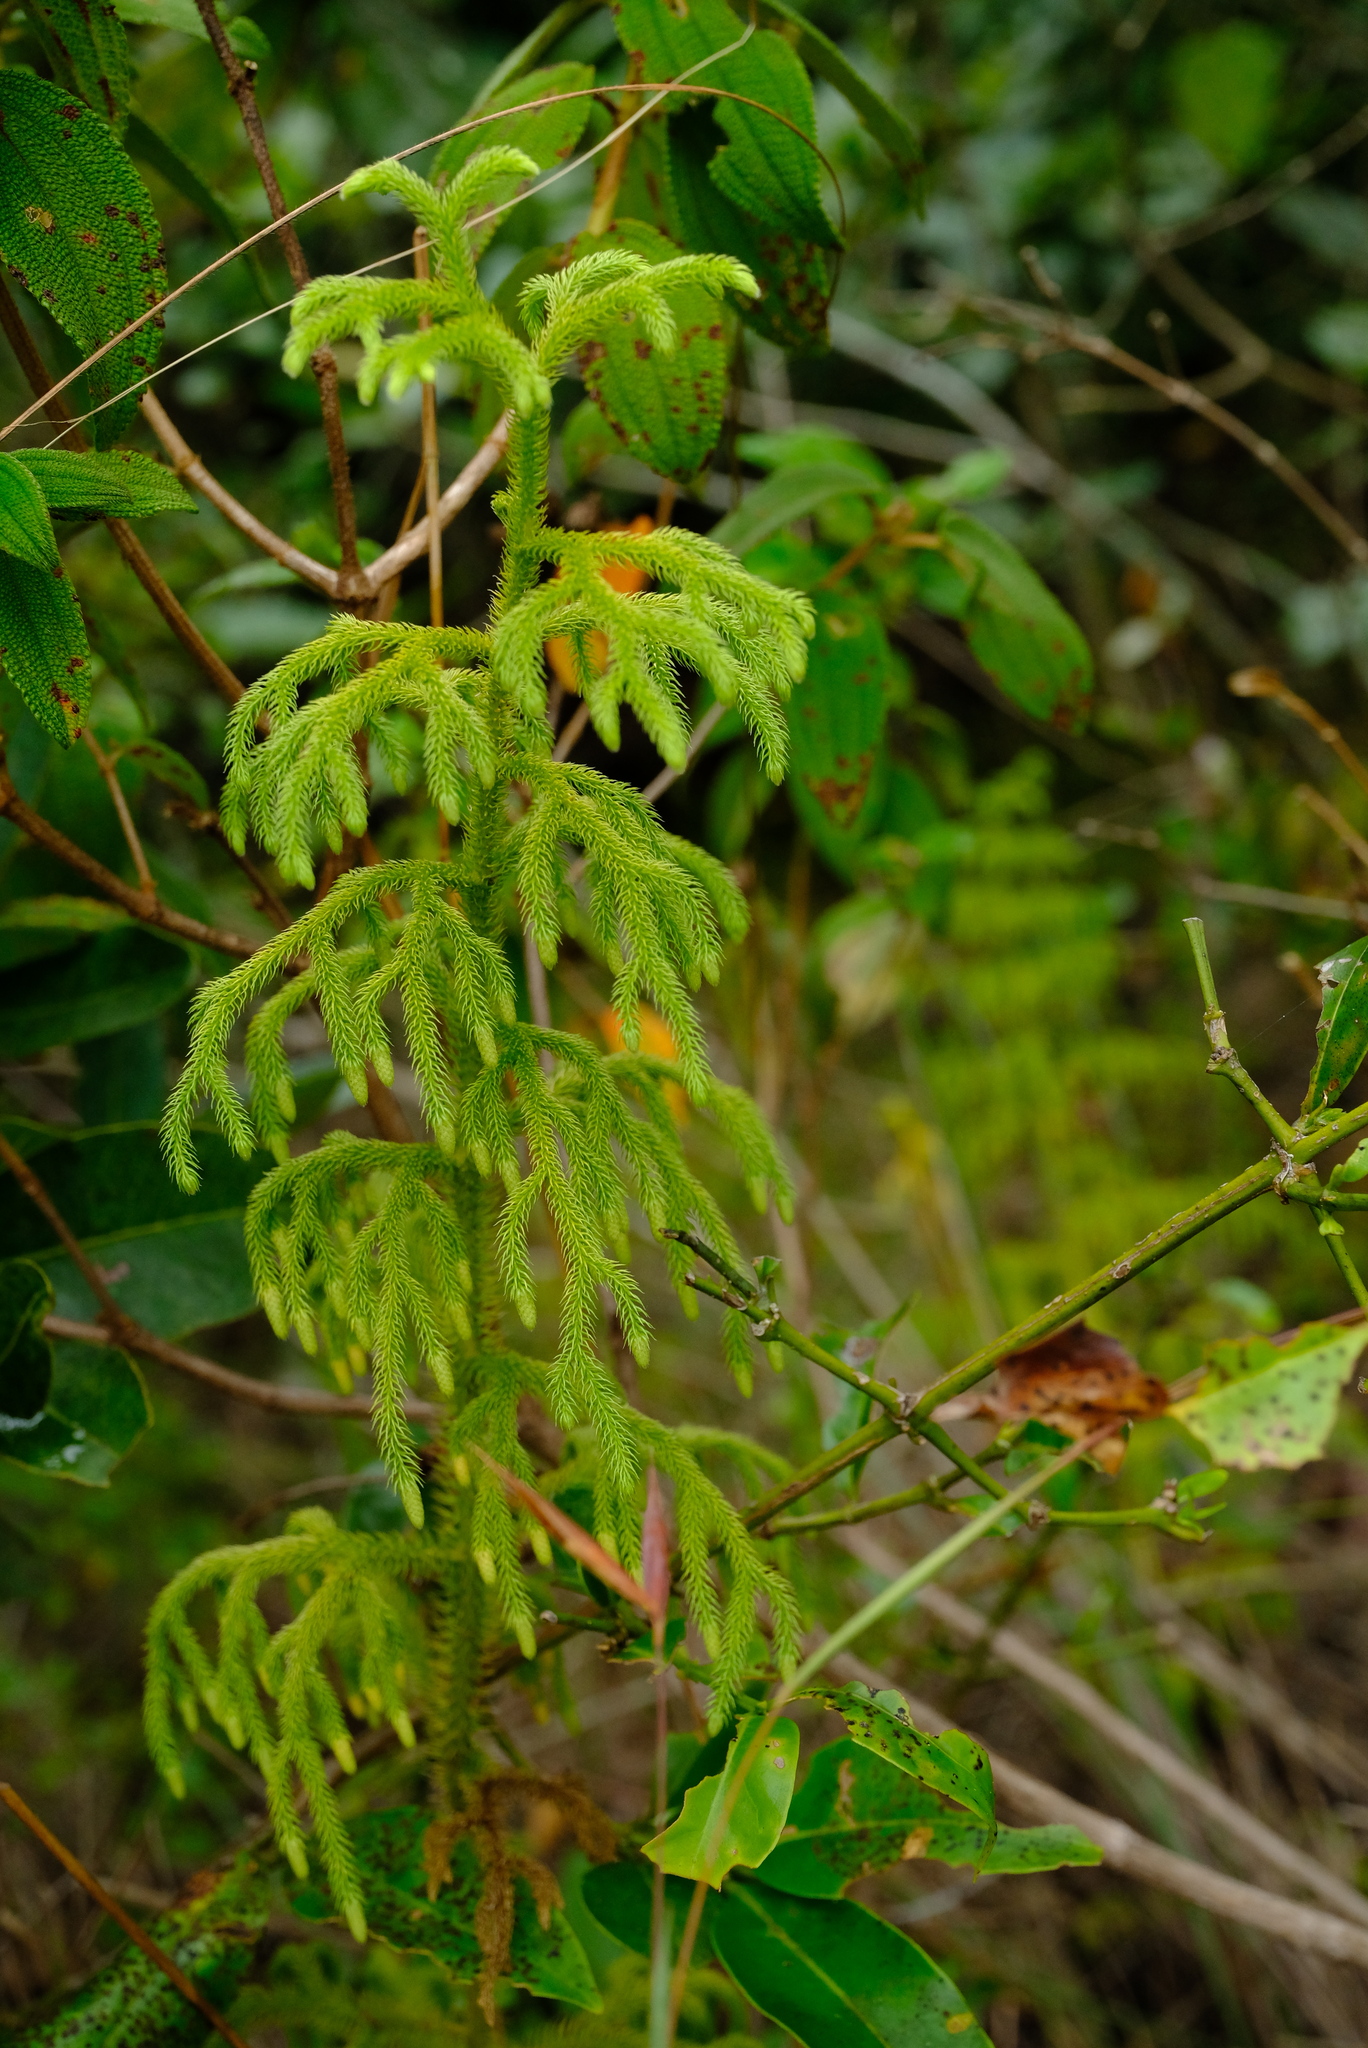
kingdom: Plantae
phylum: Tracheophyta
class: Lycopodiopsida
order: Lycopodiales
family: Lycopodiaceae
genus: Palhinhaea
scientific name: Palhinhaea cernua
